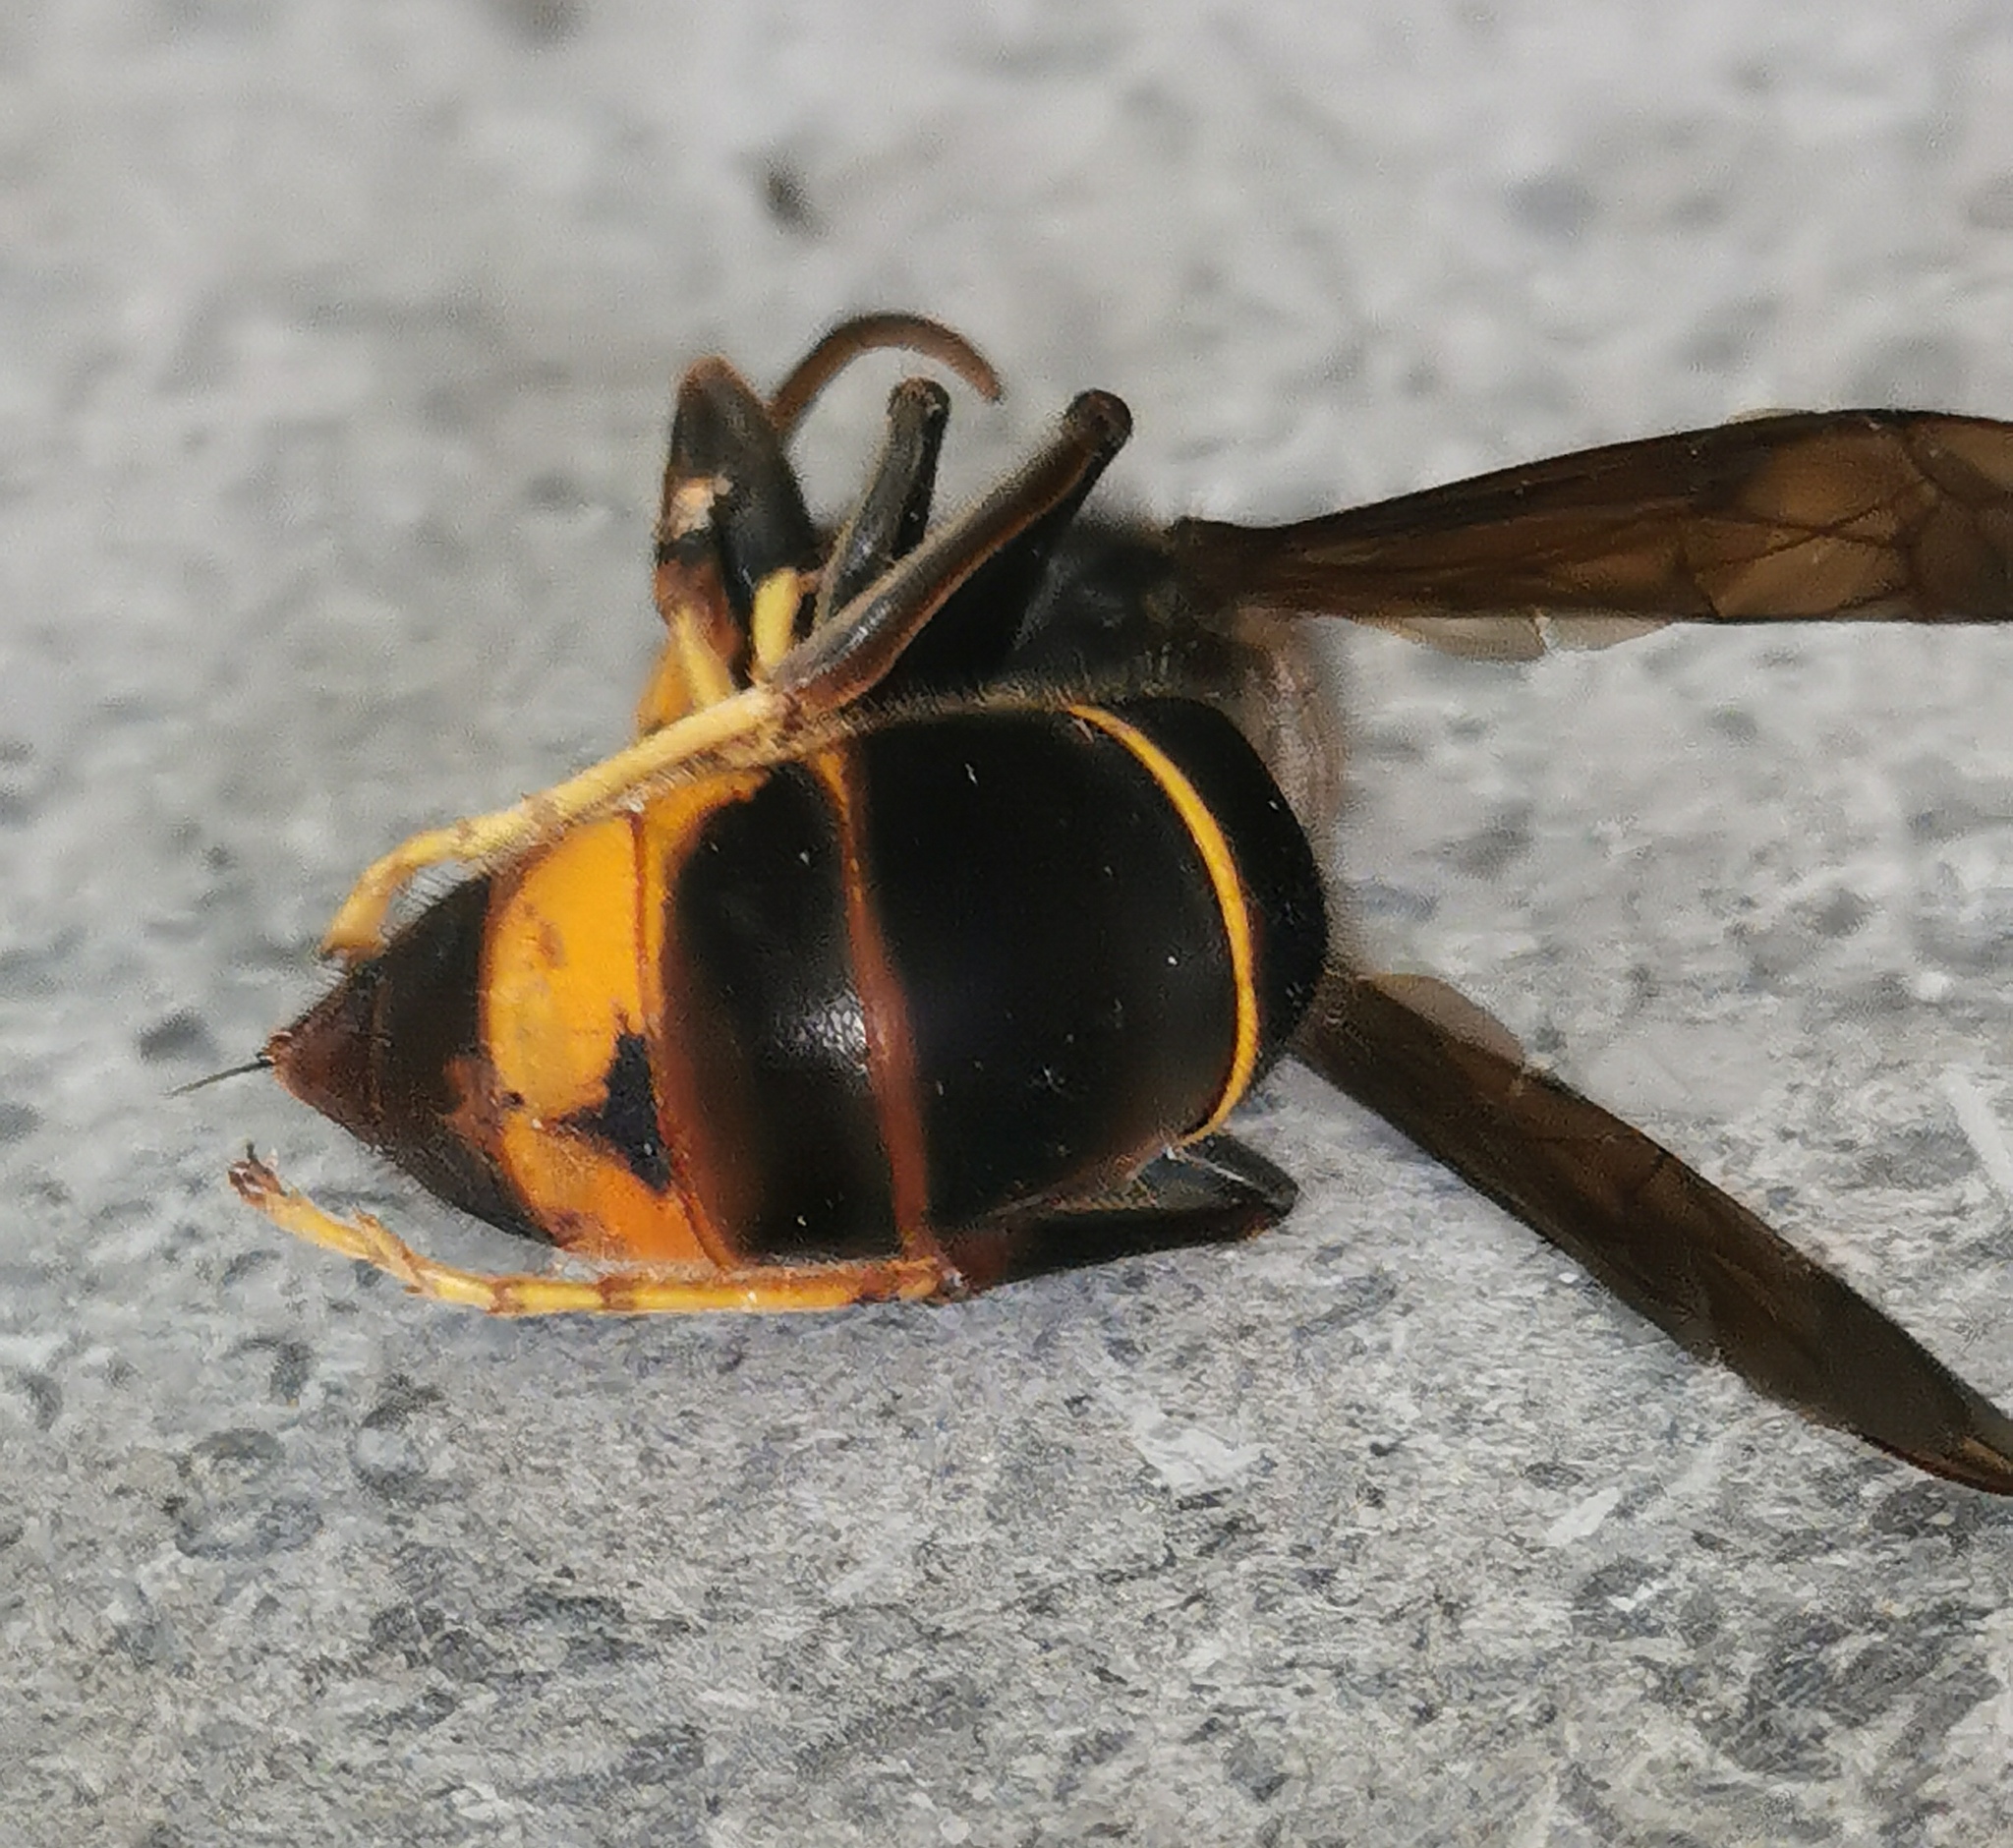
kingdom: Animalia
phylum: Arthropoda
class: Insecta
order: Hymenoptera
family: Vespidae
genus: Vespa
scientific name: Vespa velutina
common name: Asian hornet
